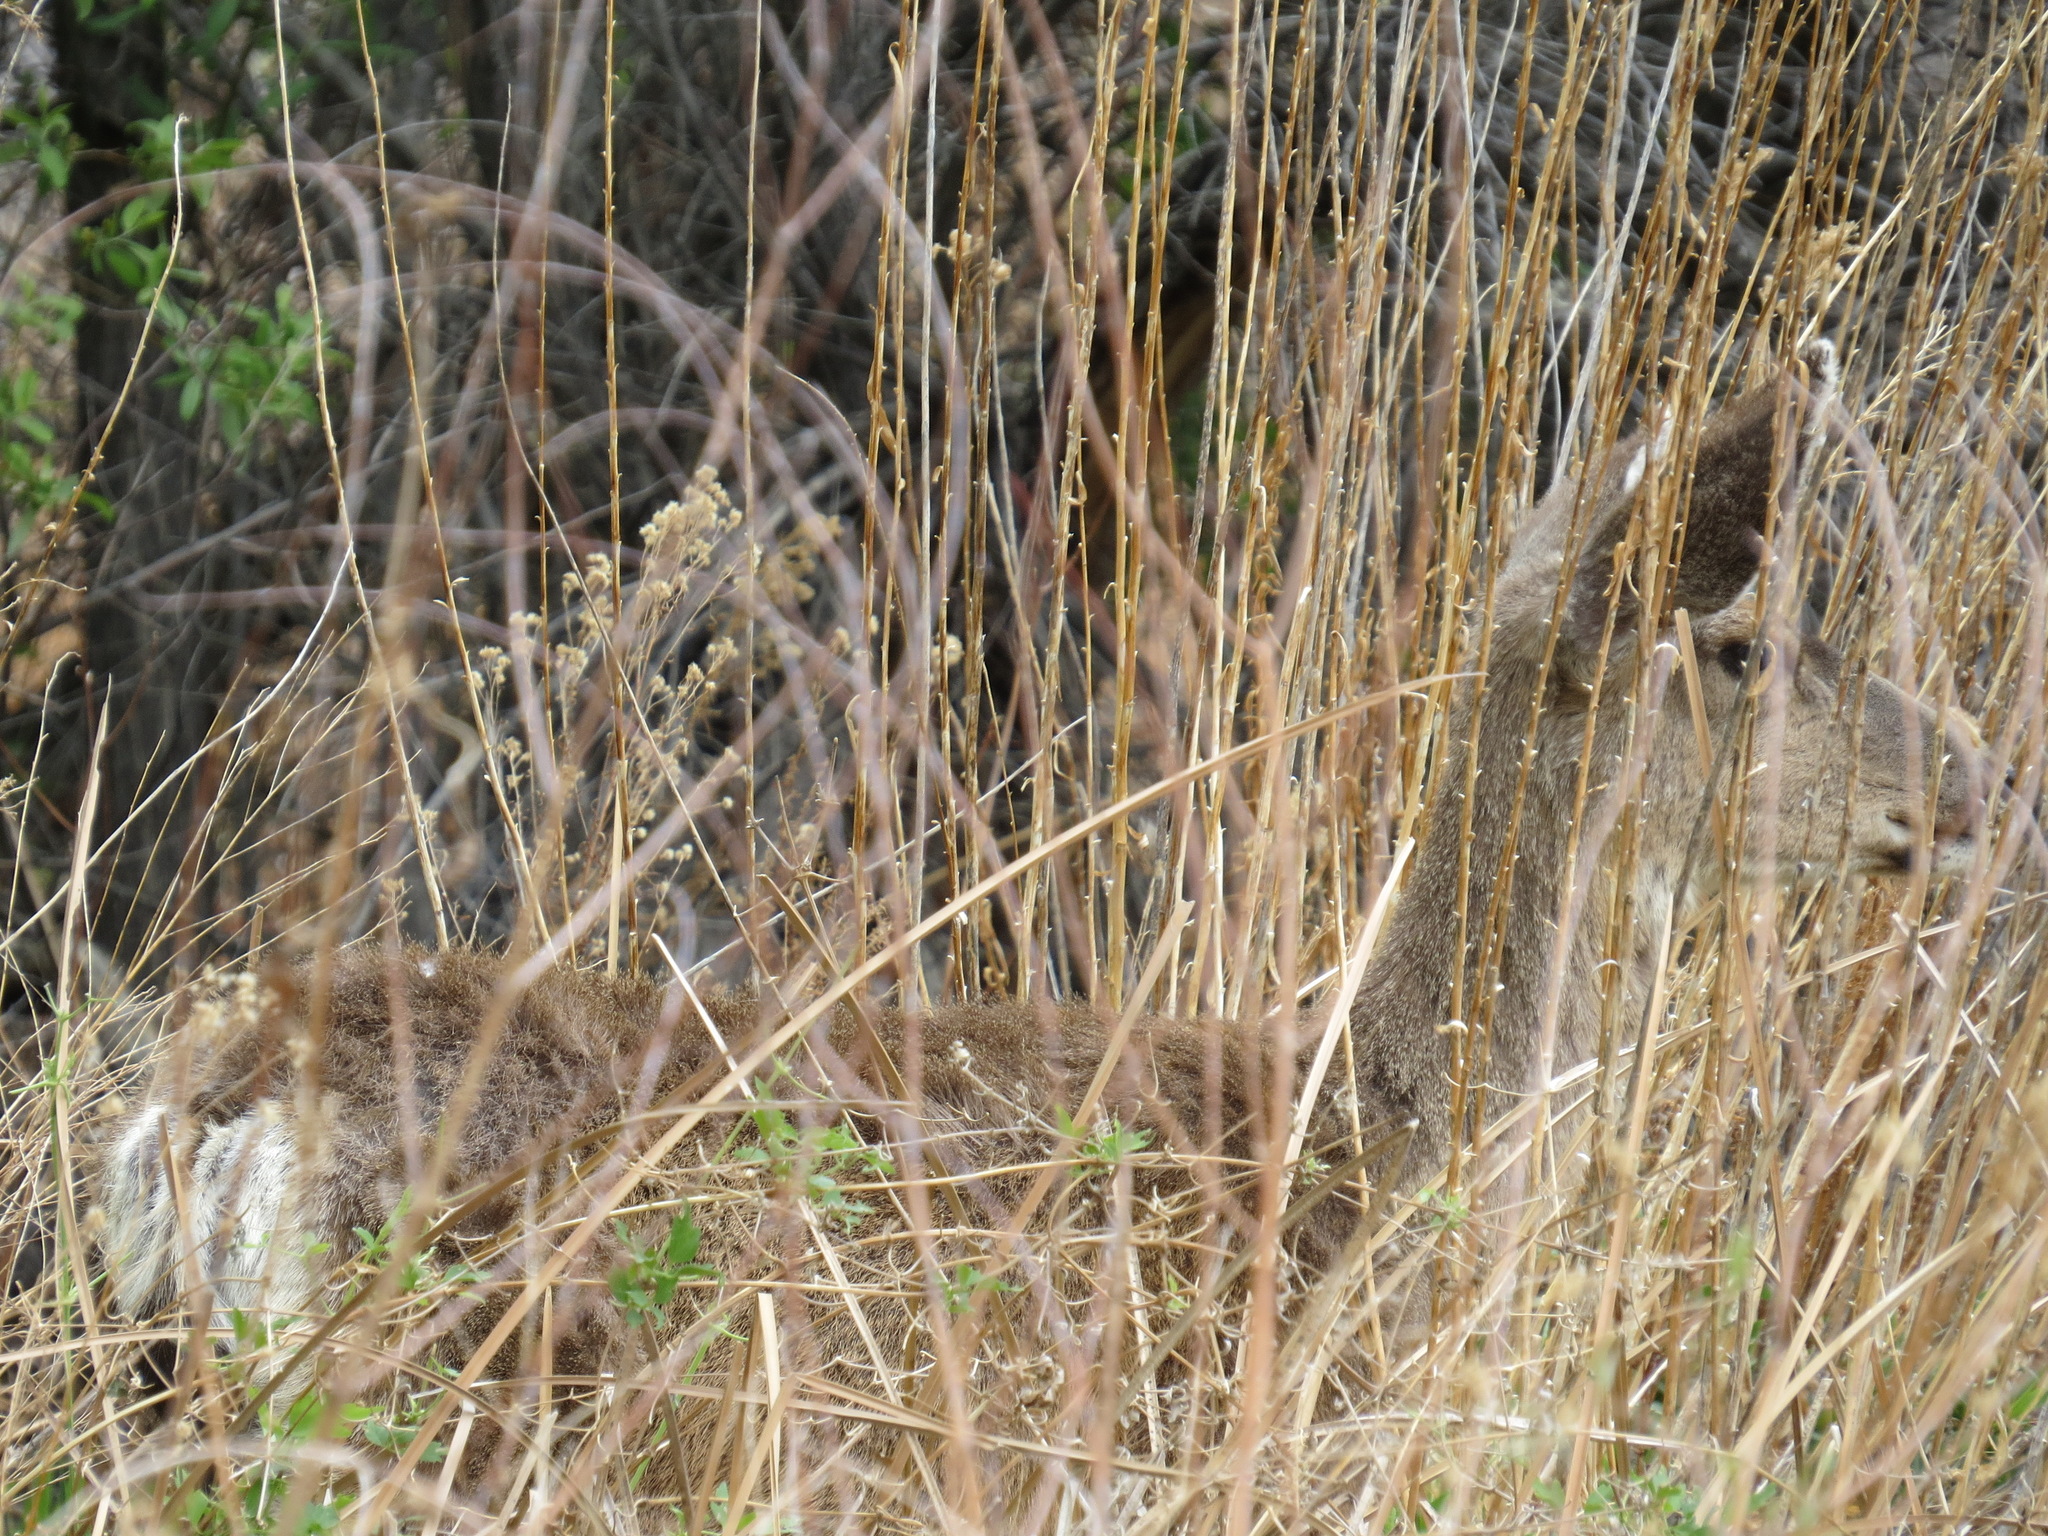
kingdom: Animalia
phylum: Chordata
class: Mammalia
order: Artiodactyla
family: Cervidae
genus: Odocoileus
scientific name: Odocoileus hemionus
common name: Mule deer
